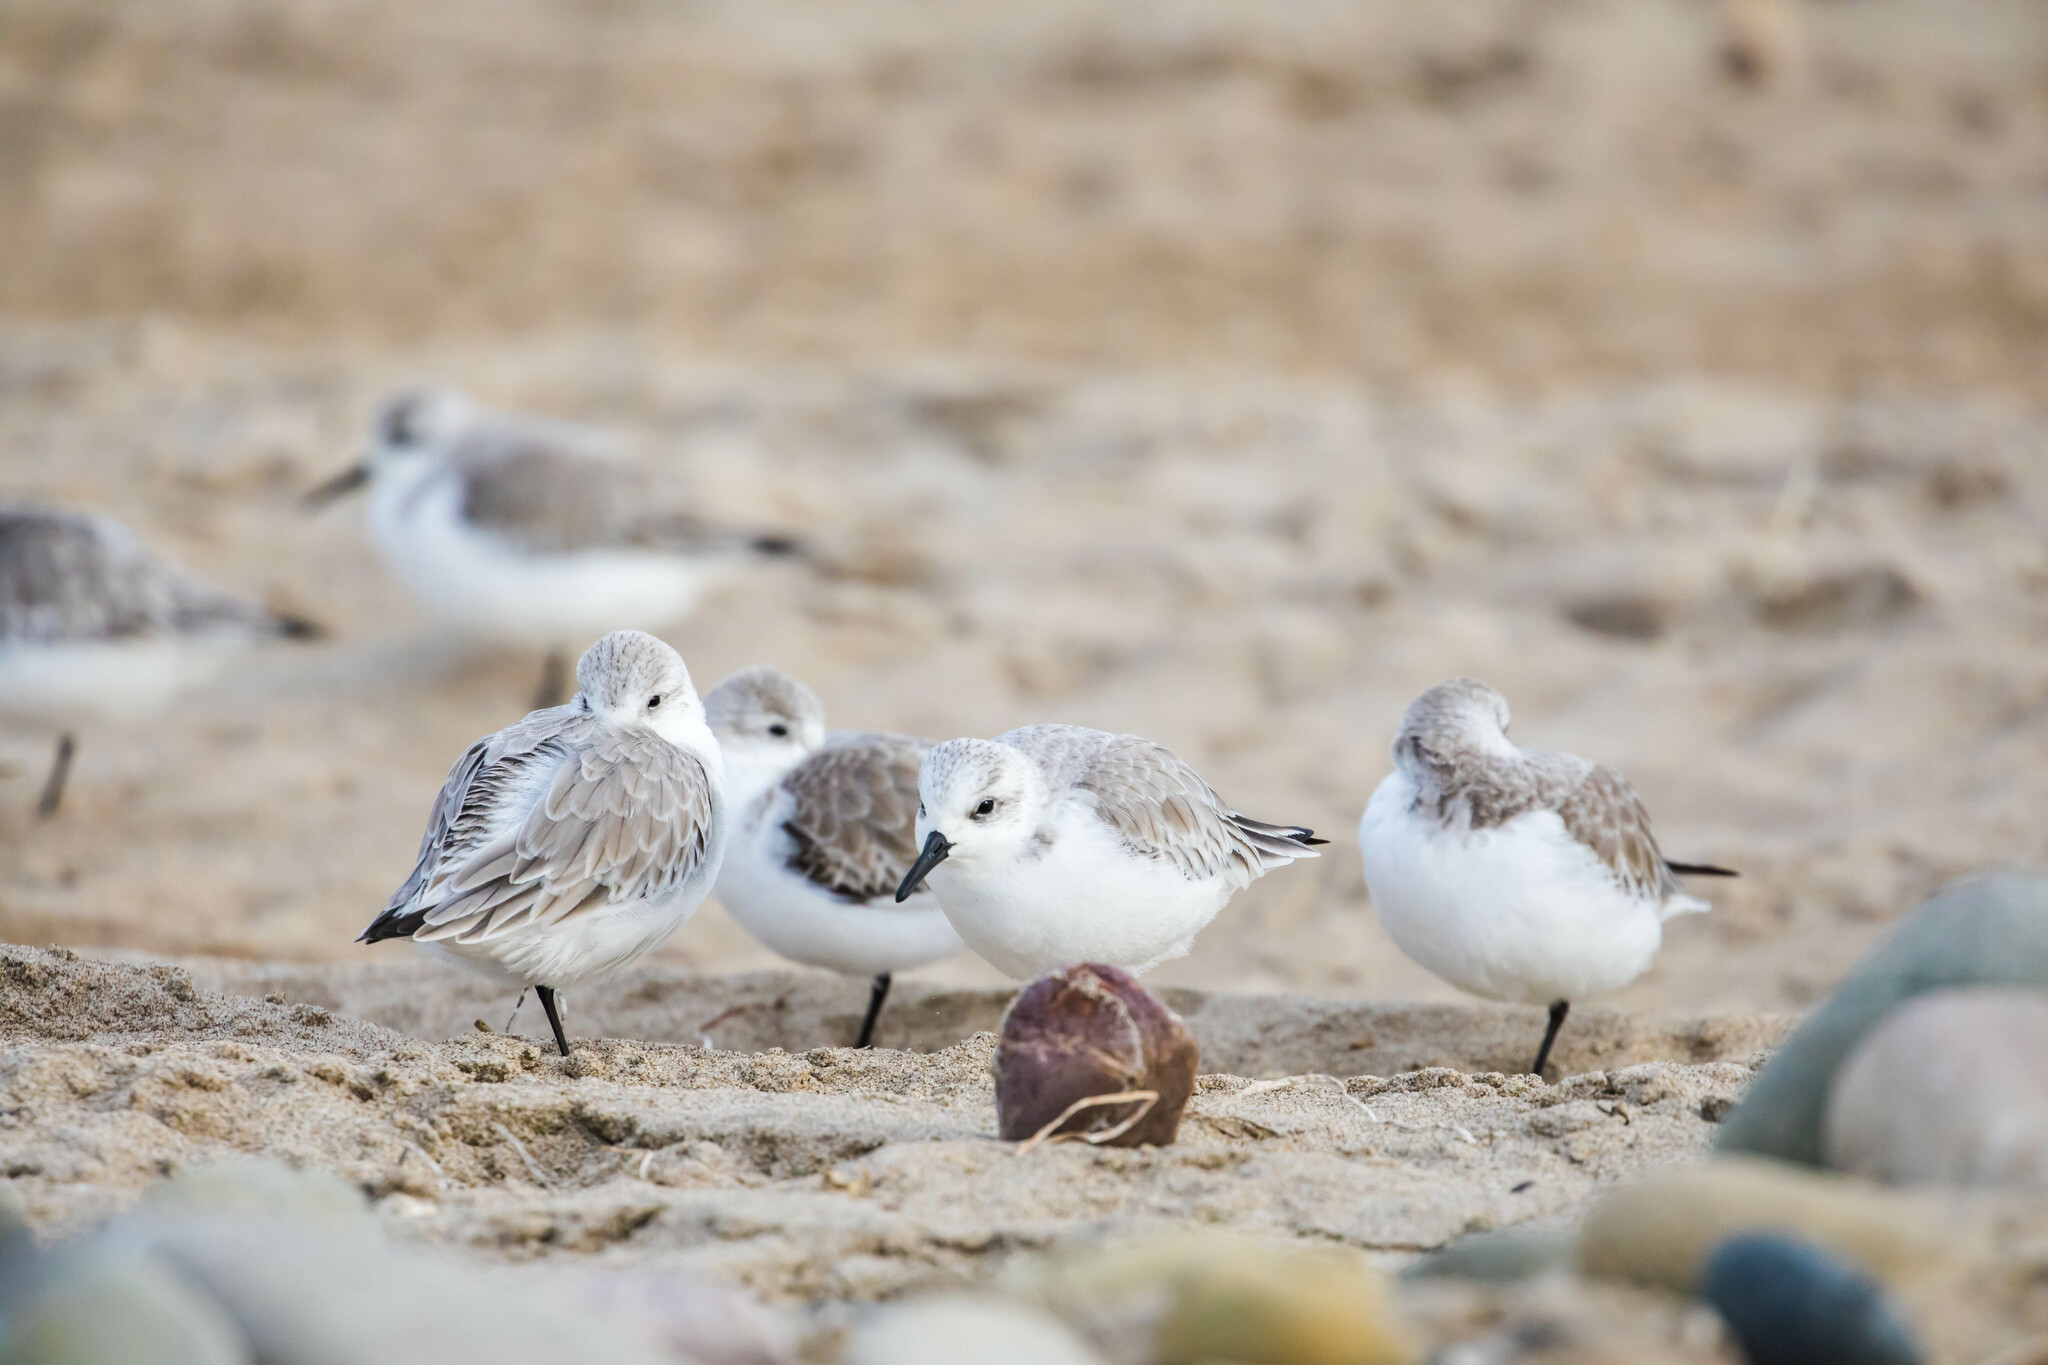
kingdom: Animalia
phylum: Chordata
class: Aves
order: Charadriiformes
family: Scolopacidae
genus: Calidris
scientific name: Calidris alba
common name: Sanderling
